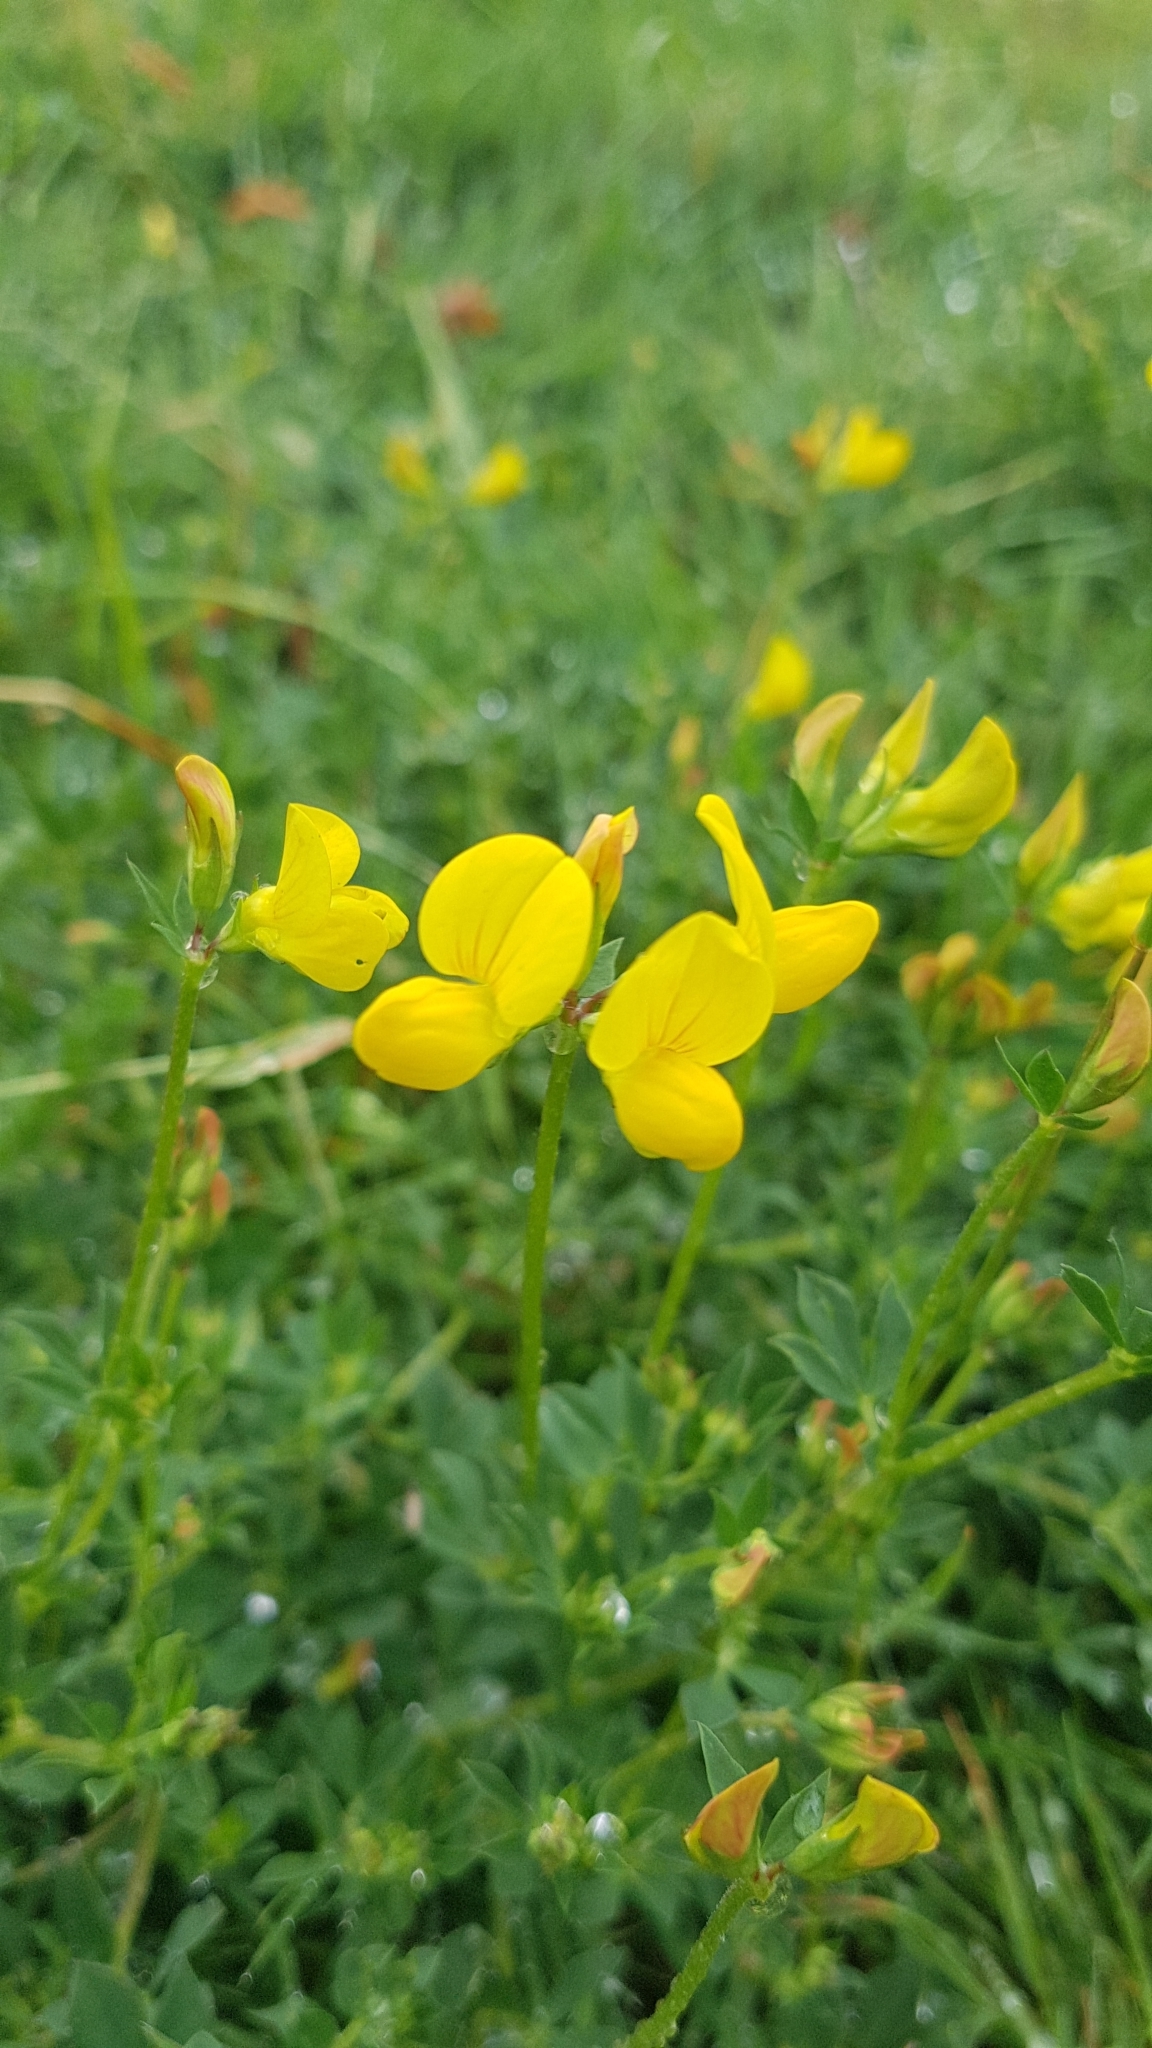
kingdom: Plantae
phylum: Tracheophyta
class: Magnoliopsida
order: Fabales
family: Fabaceae
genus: Lotus
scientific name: Lotus corniculatus
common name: Common bird's-foot-trefoil
